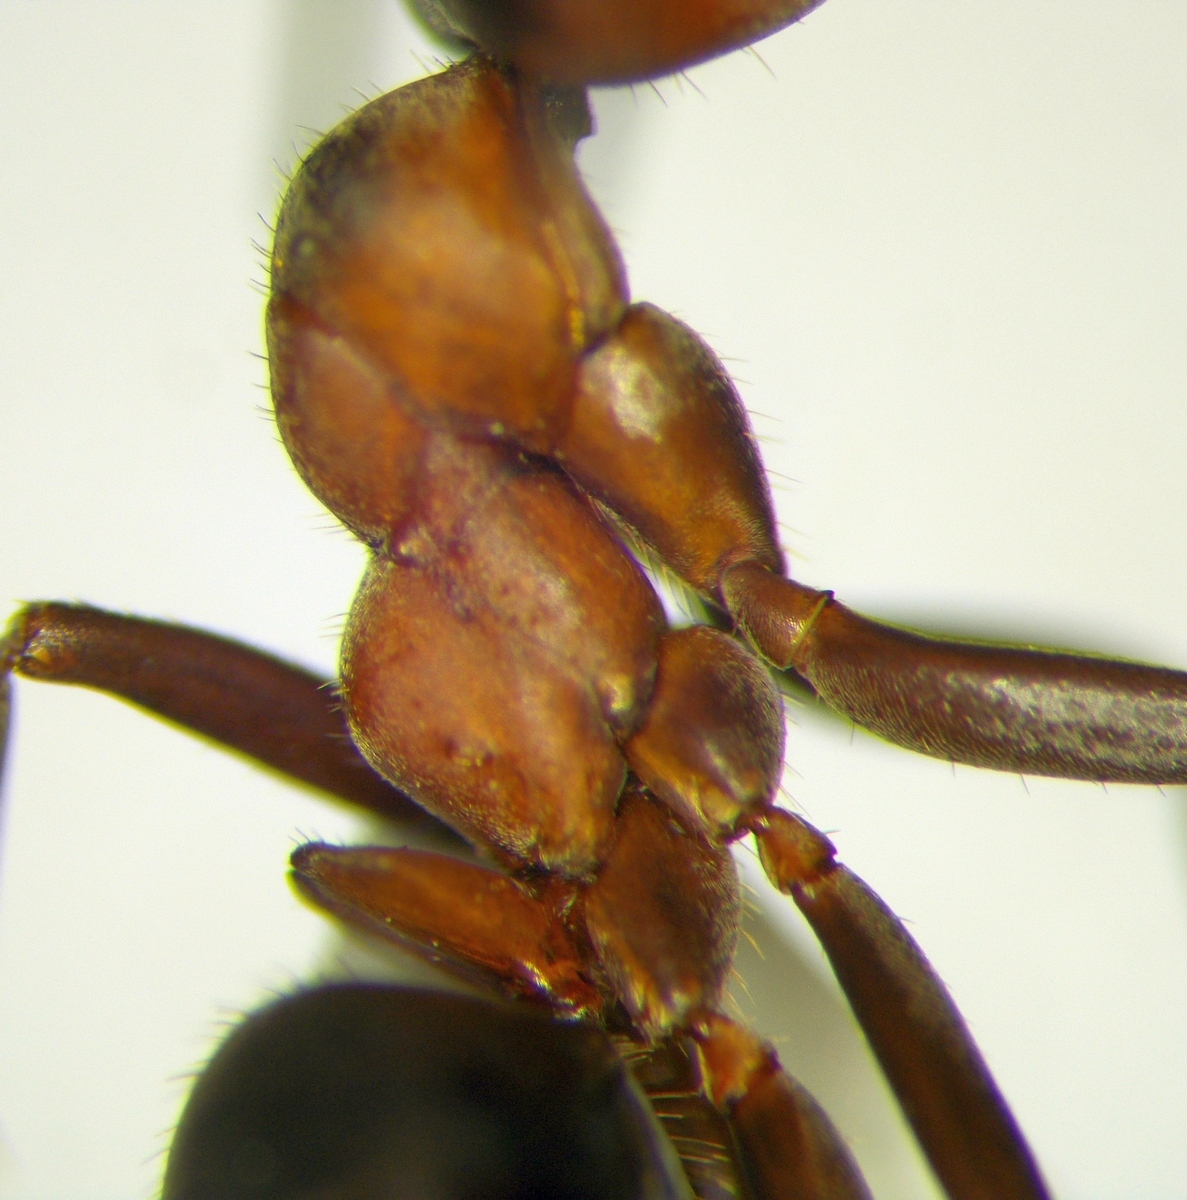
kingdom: Animalia
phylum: Arthropoda
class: Insecta
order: Hymenoptera
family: Formicidae
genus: Formica
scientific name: Formica rufa
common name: Red wood ant
